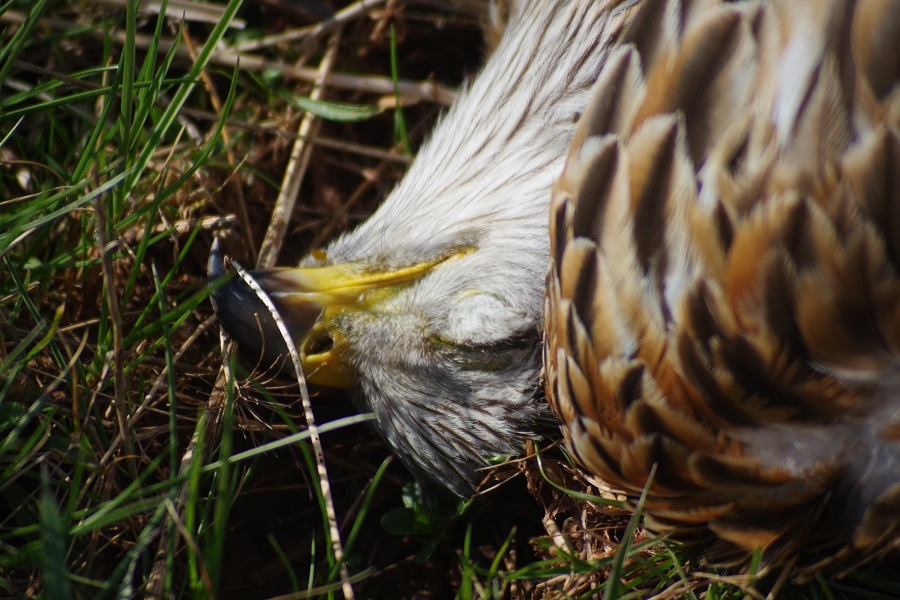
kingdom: Animalia
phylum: Chordata
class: Aves
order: Accipitriformes
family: Accipitridae
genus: Milvus
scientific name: Milvus milvus
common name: Red kite
